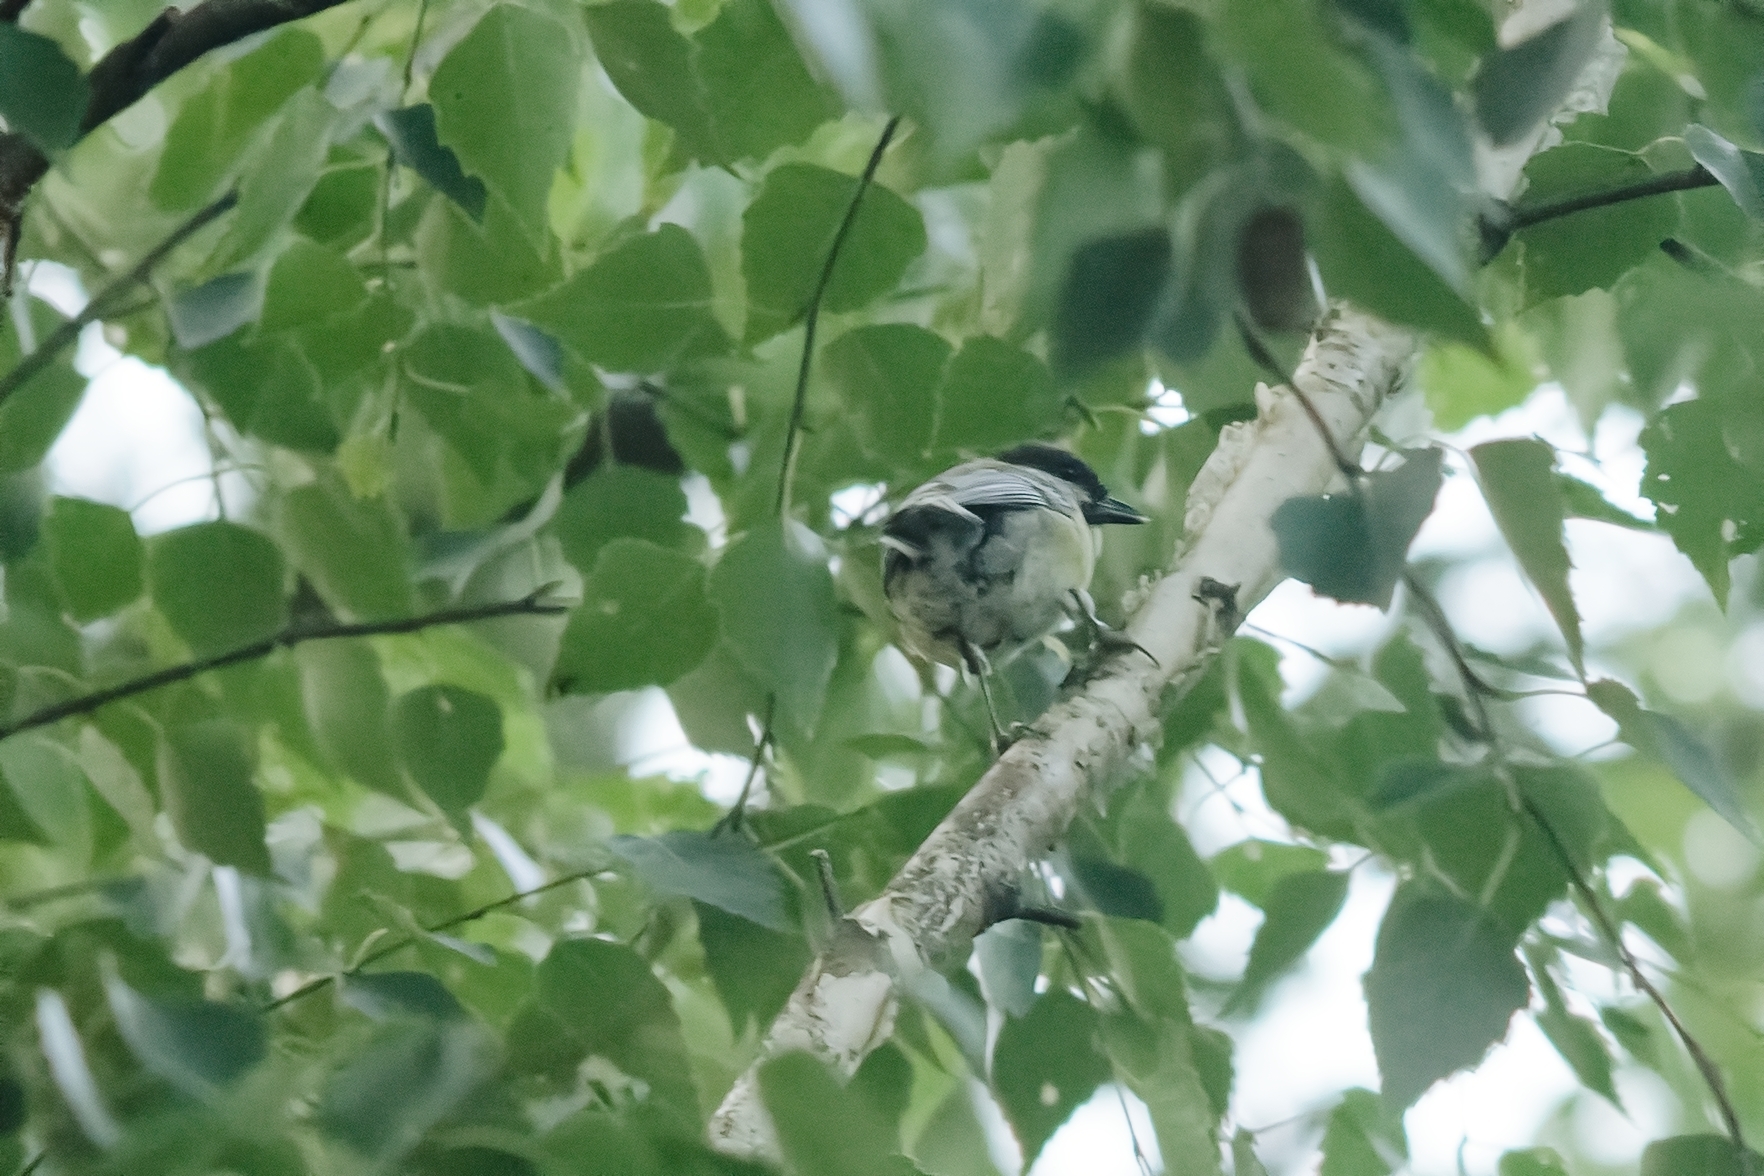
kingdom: Animalia
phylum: Chordata
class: Aves
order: Passeriformes
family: Paridae
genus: Parus
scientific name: Parus major
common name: Great tit
